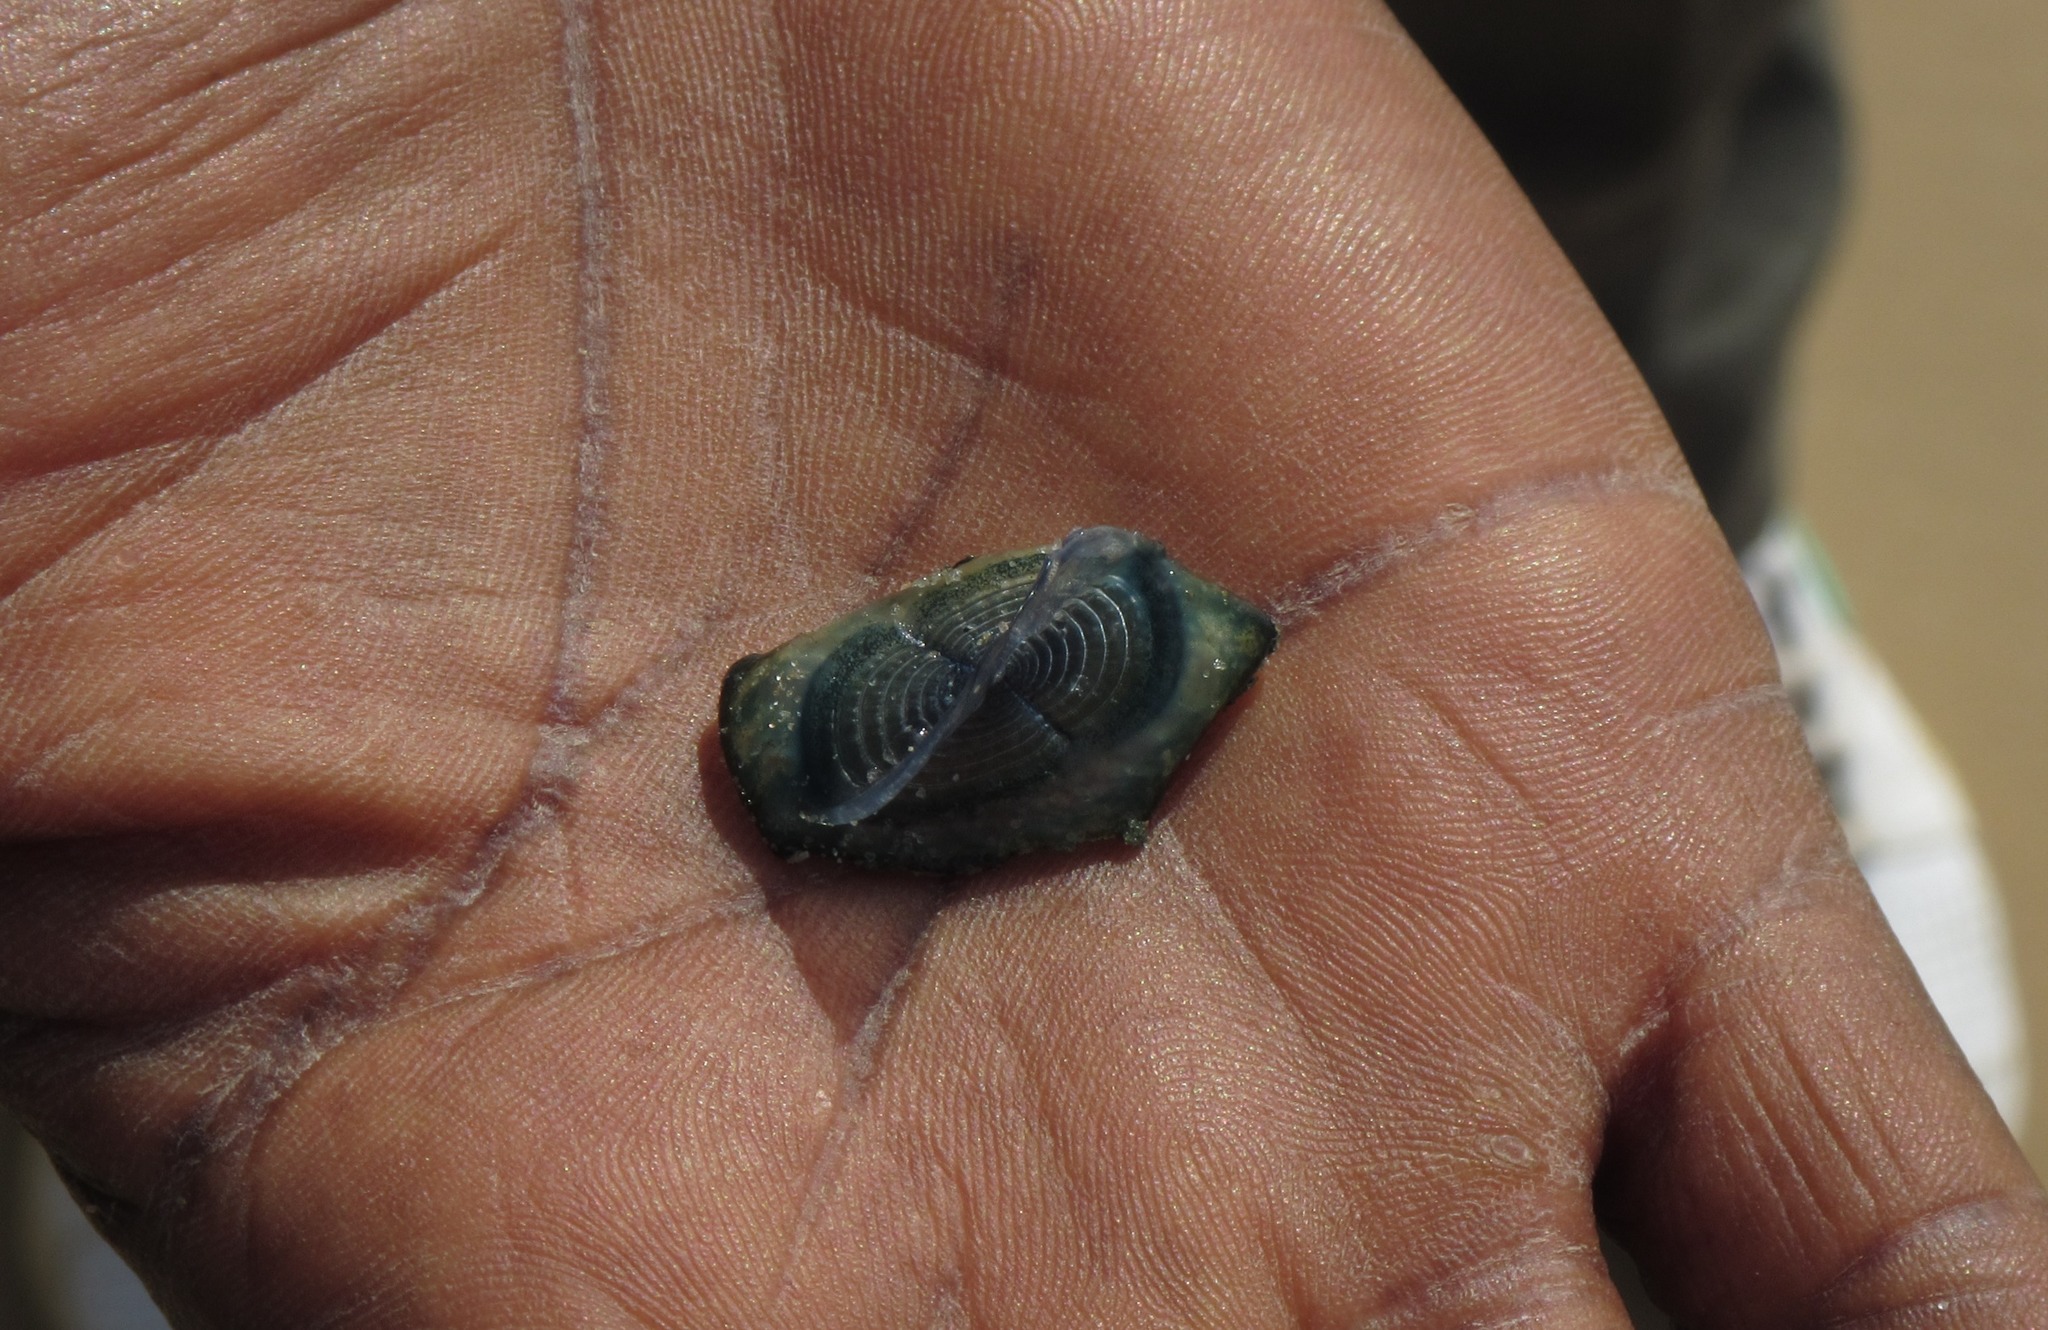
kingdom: Animalia
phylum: Cnidaria
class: Hydrozoa
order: Anthoathecata
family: Porpitidae
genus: Velella
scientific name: Velella velella
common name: By-the-wind-sailor
